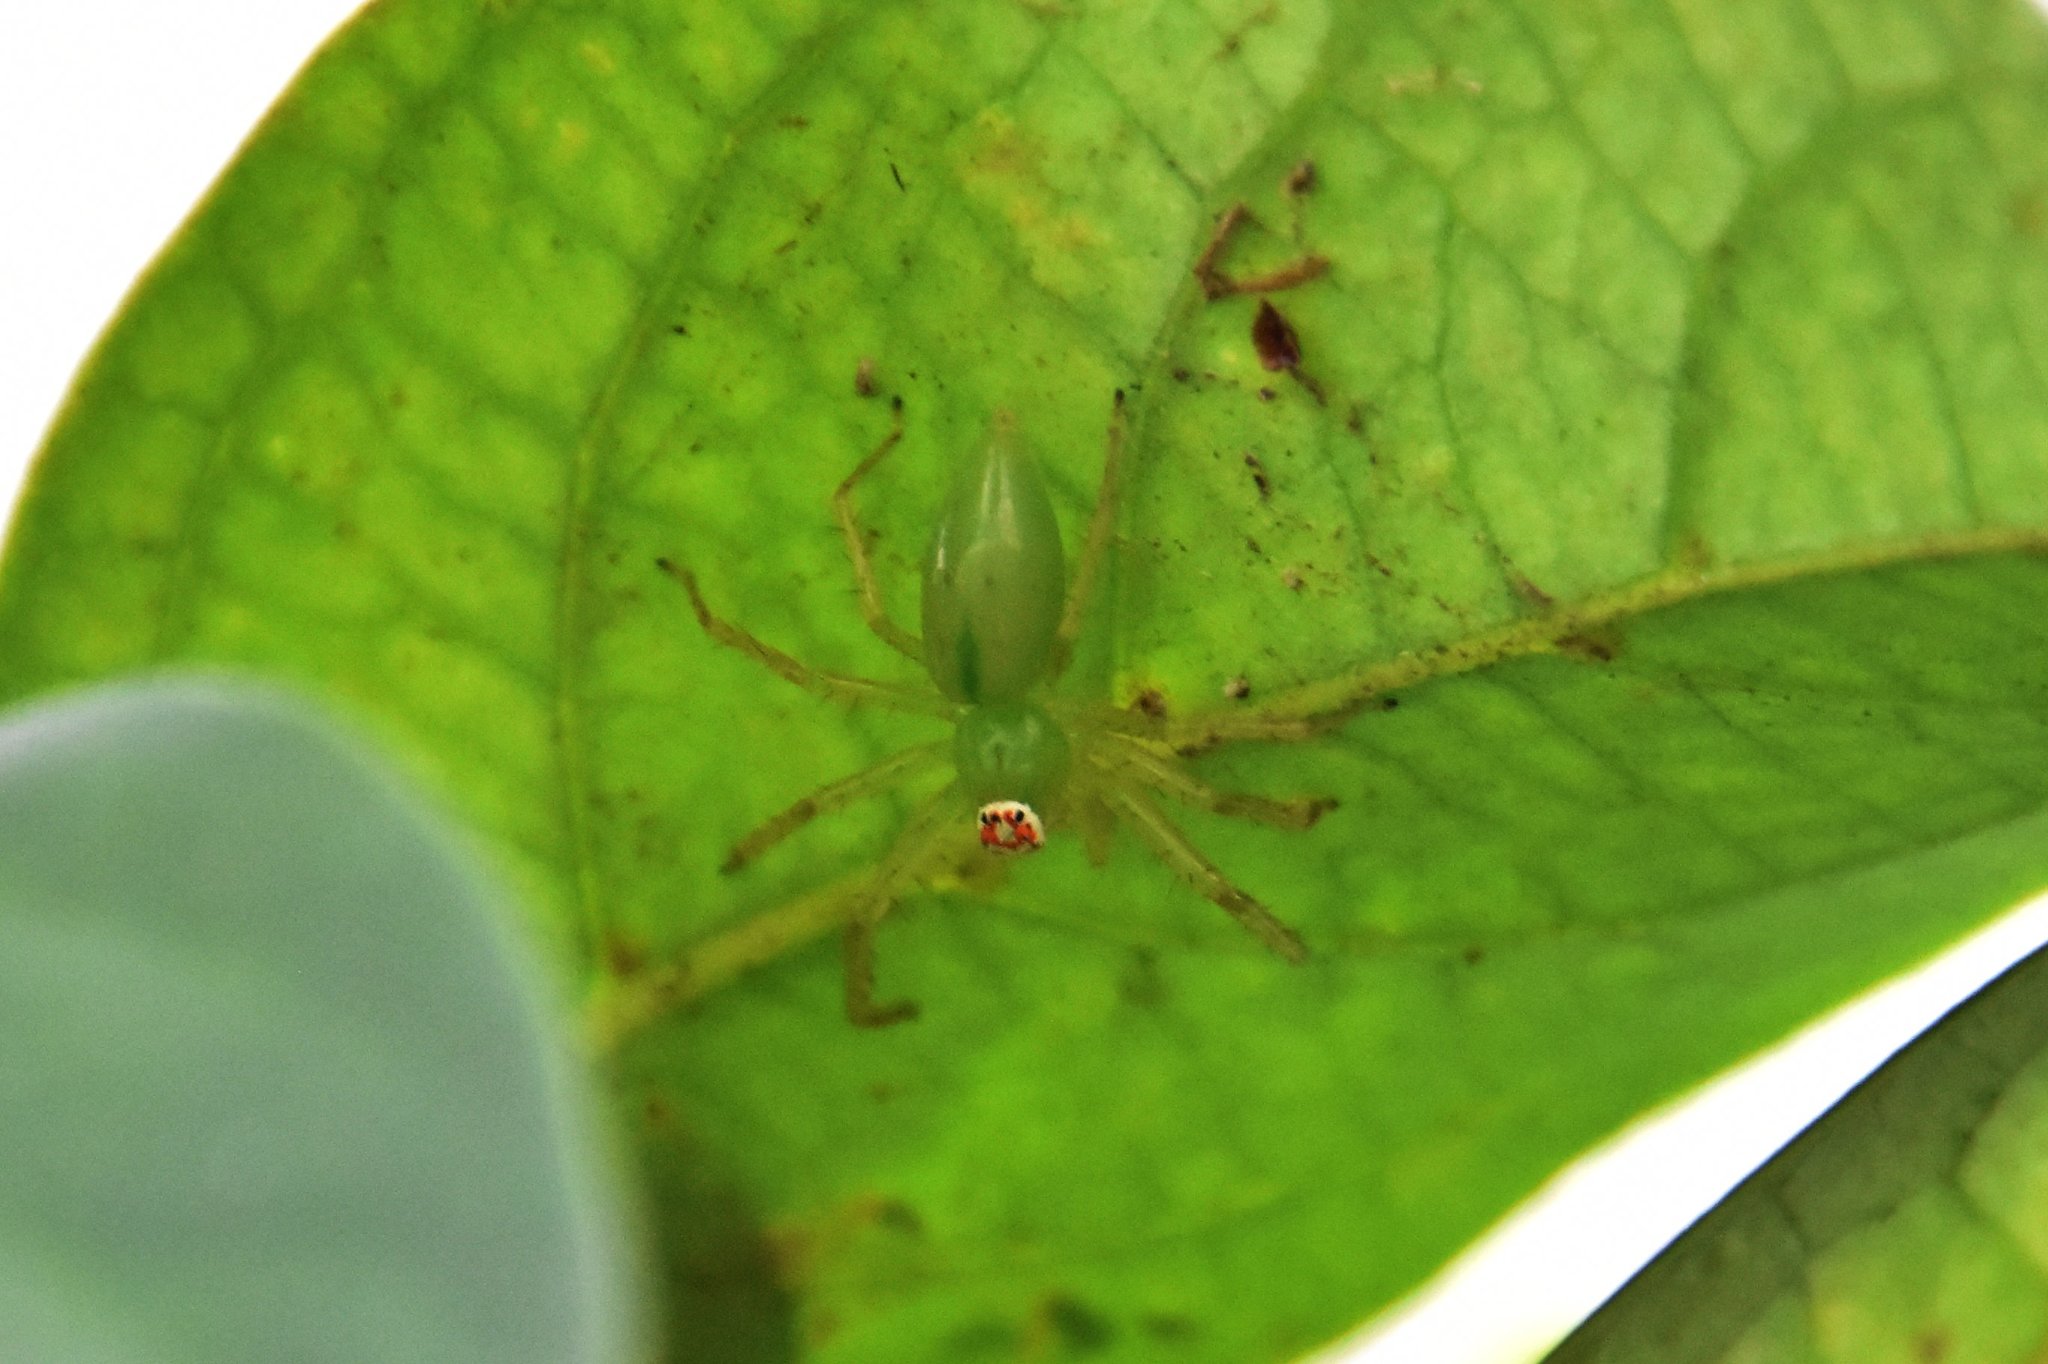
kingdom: Animalia
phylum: Arthropoda
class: Arachnida
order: Araneae
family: Salticidae
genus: Lyssomanes
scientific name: Lyssomanes viridis
